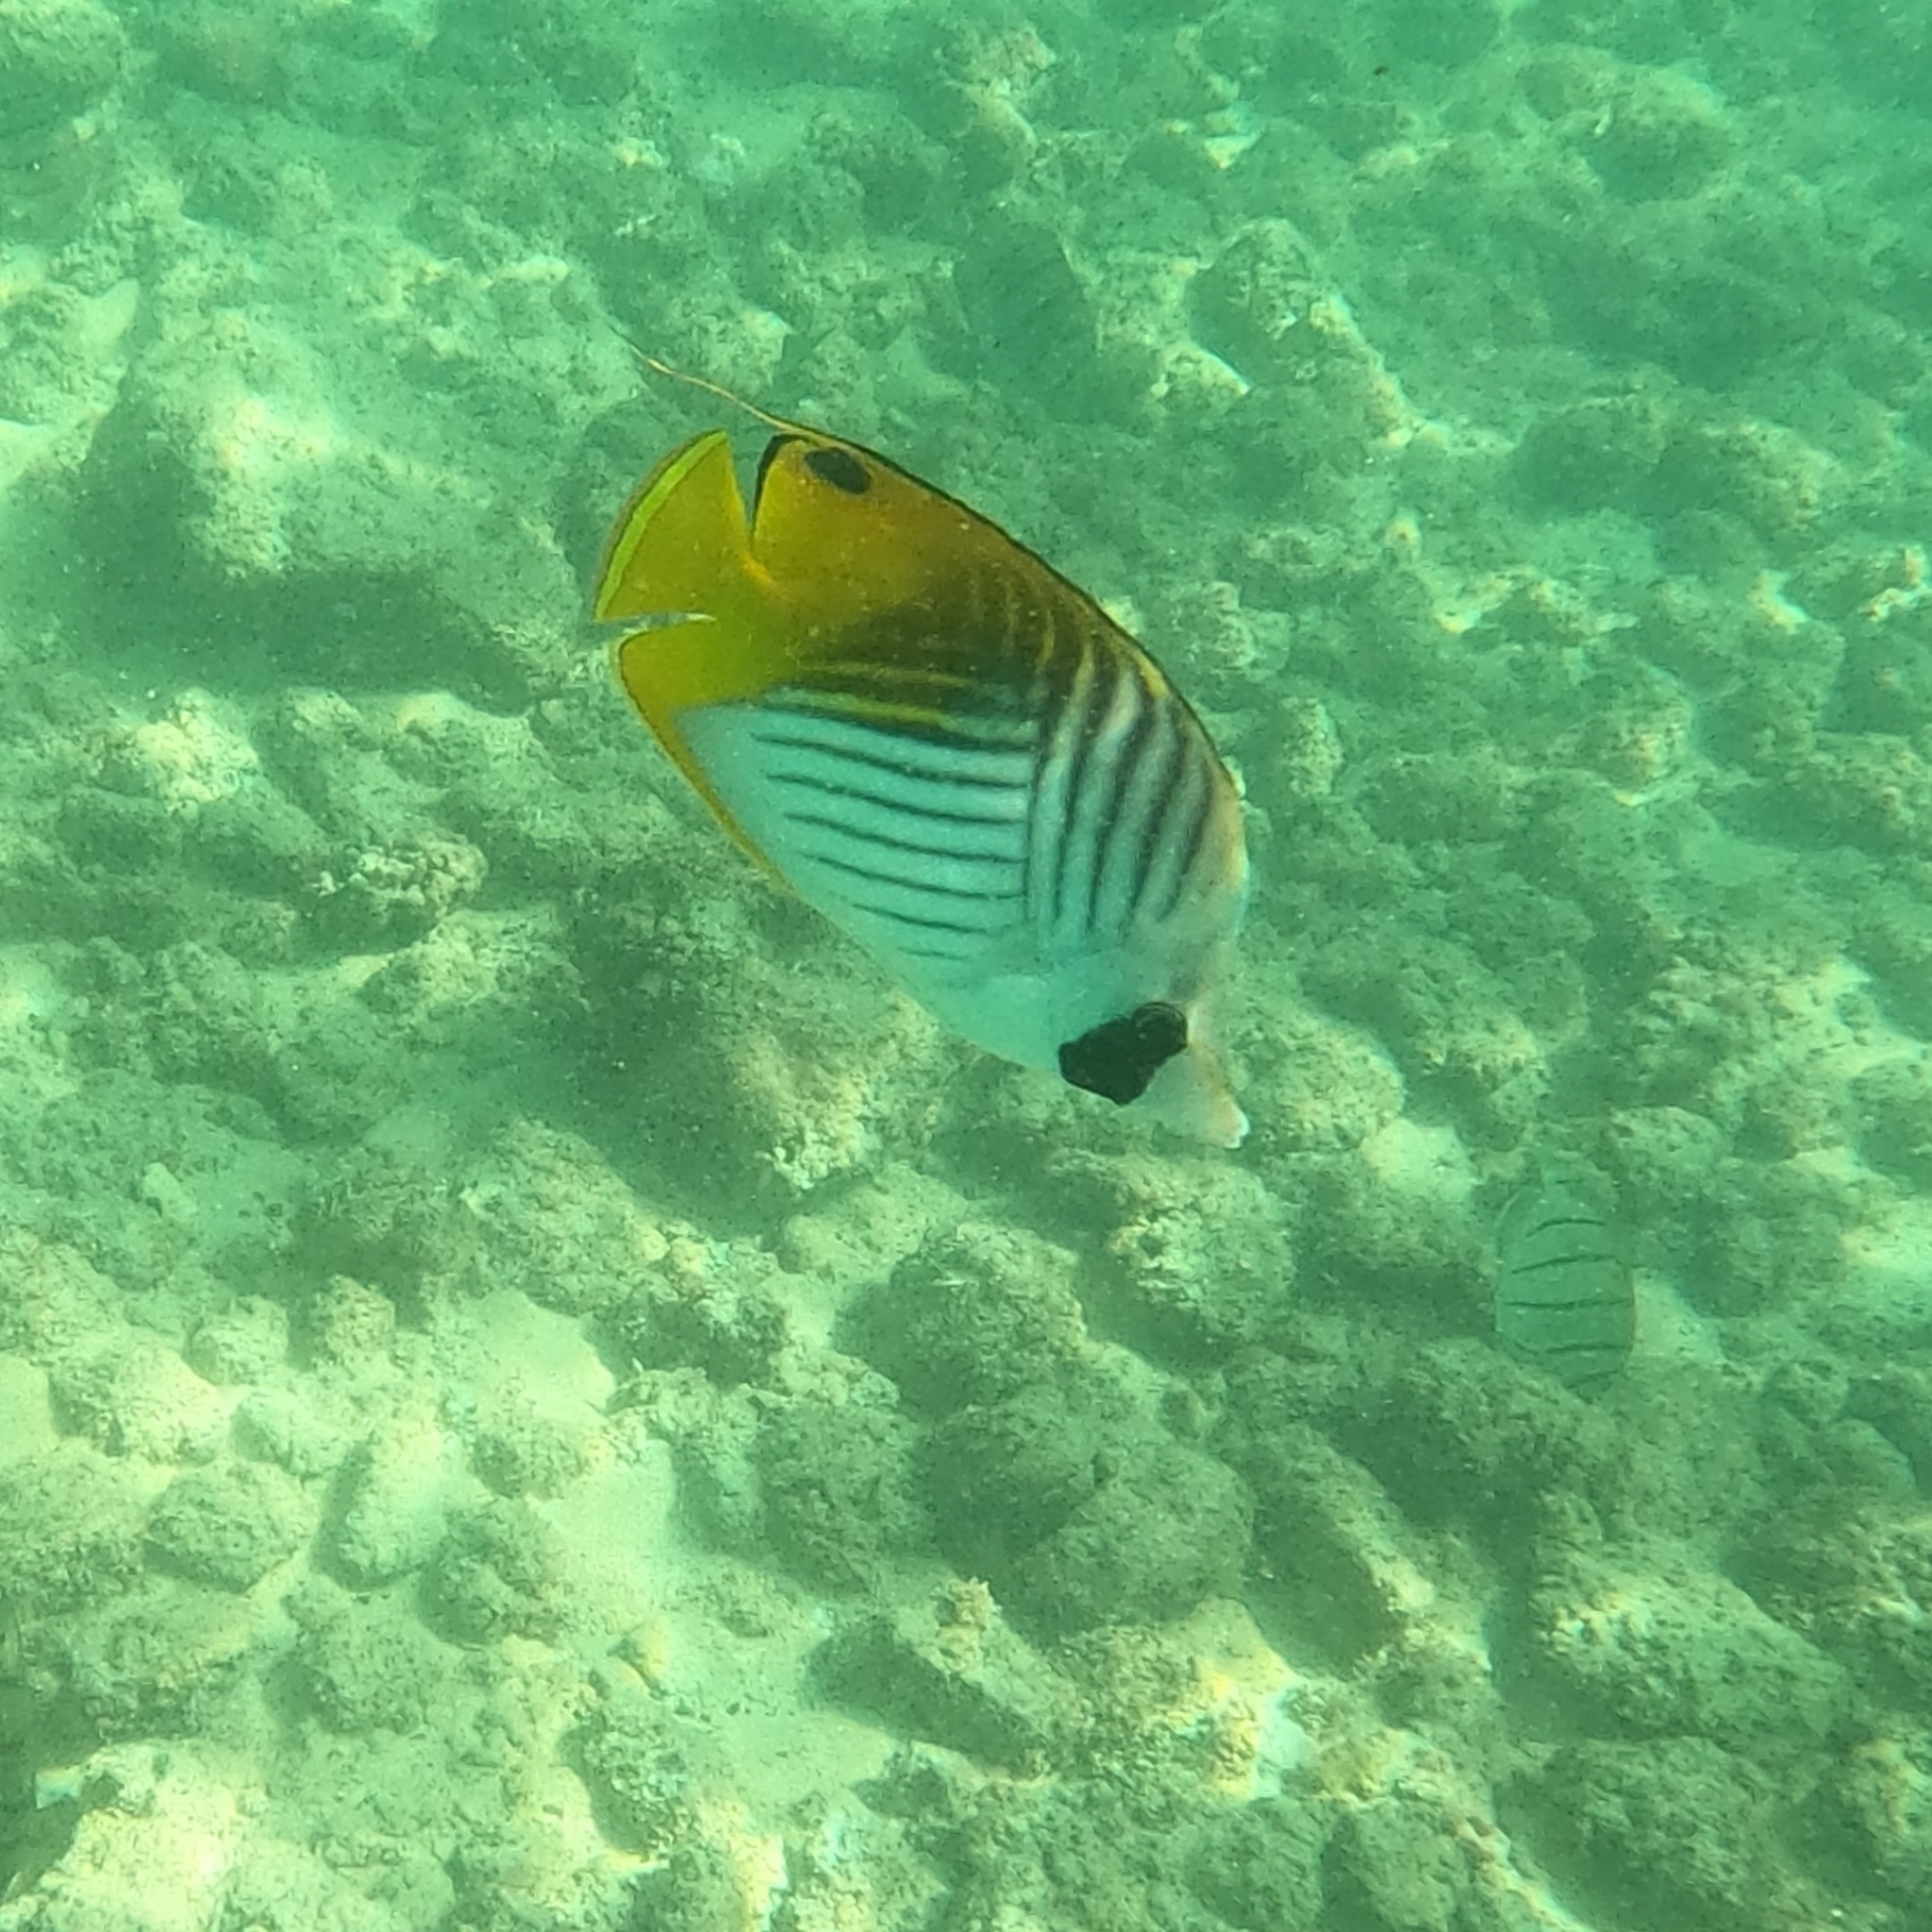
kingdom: Animalia
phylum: Chordata
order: Perciformes
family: Chaetodontidae
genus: Chaetodon
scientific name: Chaetodon auriga
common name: Threadfin butterflyfish
